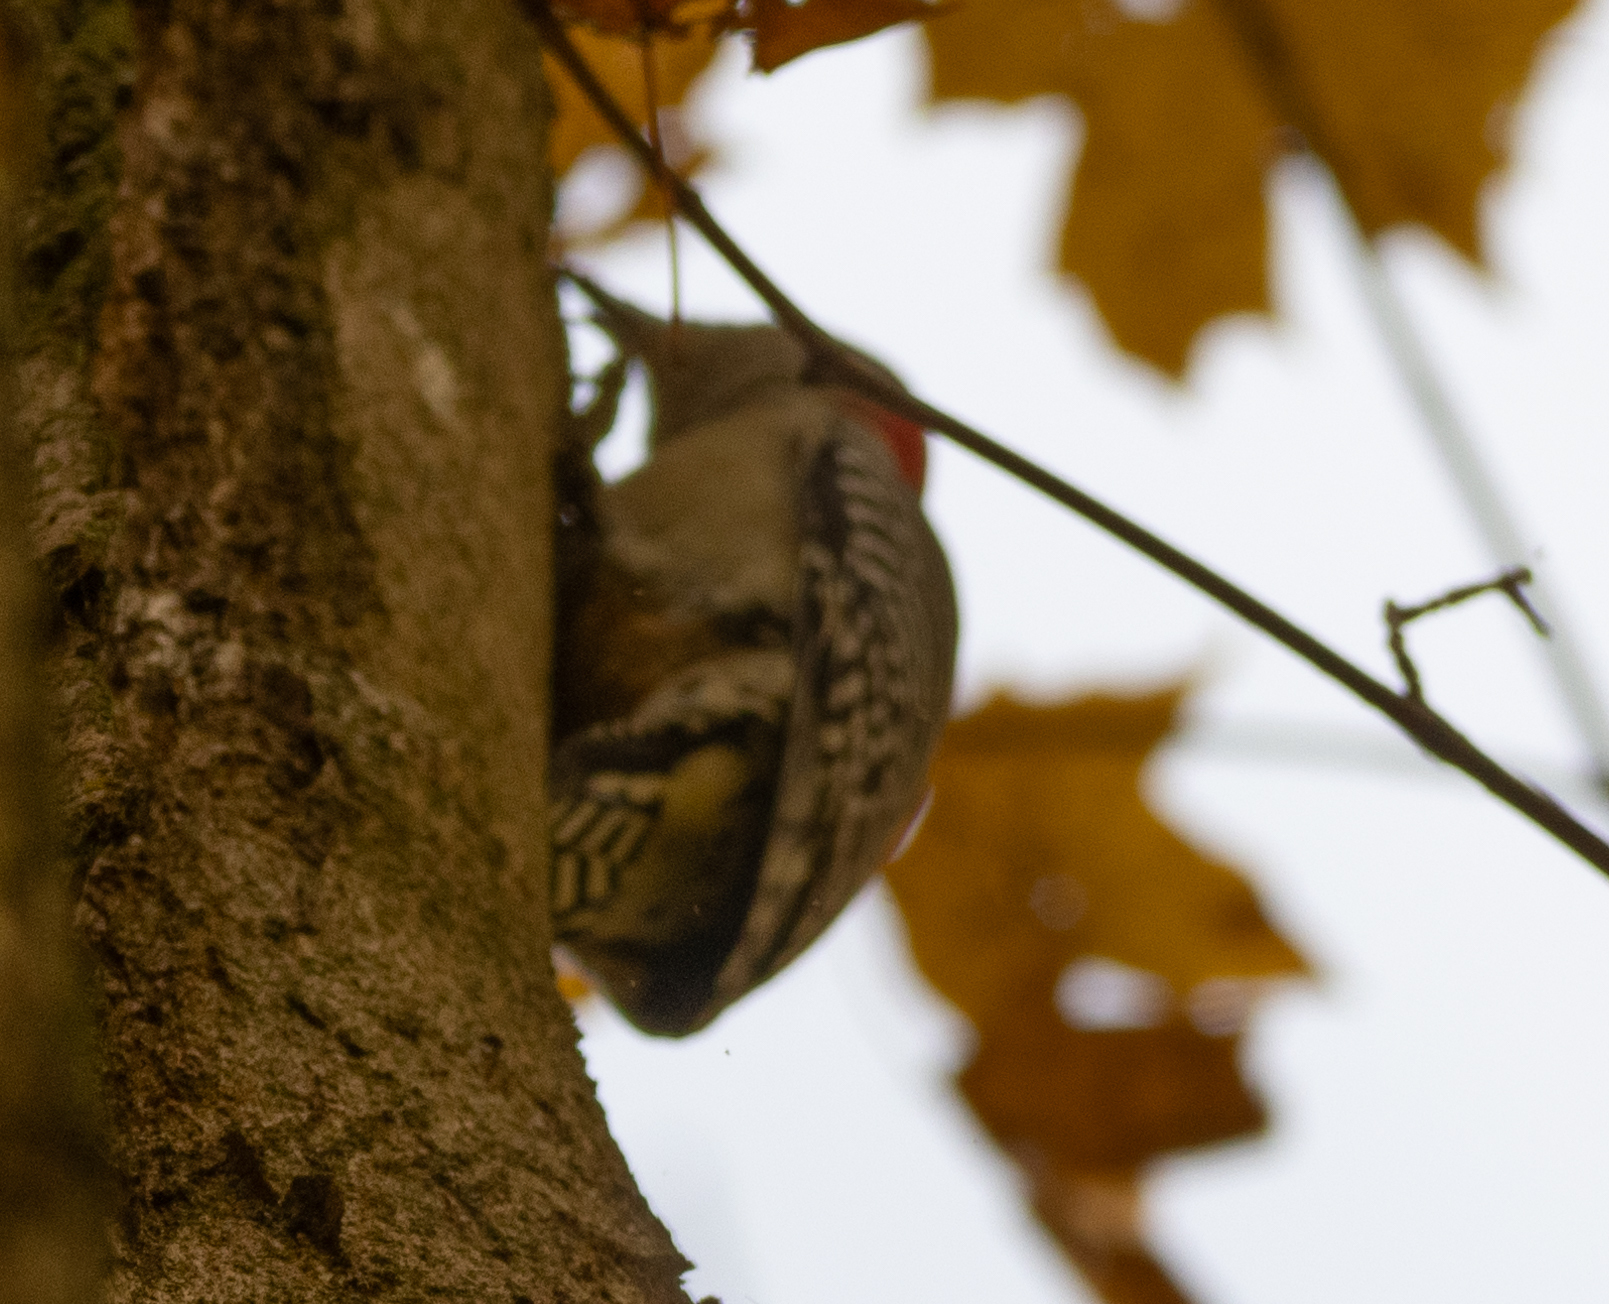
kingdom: Animalia
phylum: Chordata
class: Aves
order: Piciformes
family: Picidae
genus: Melanerpes
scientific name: Melanerpes carolinus
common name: Red-bellied woodpecker
